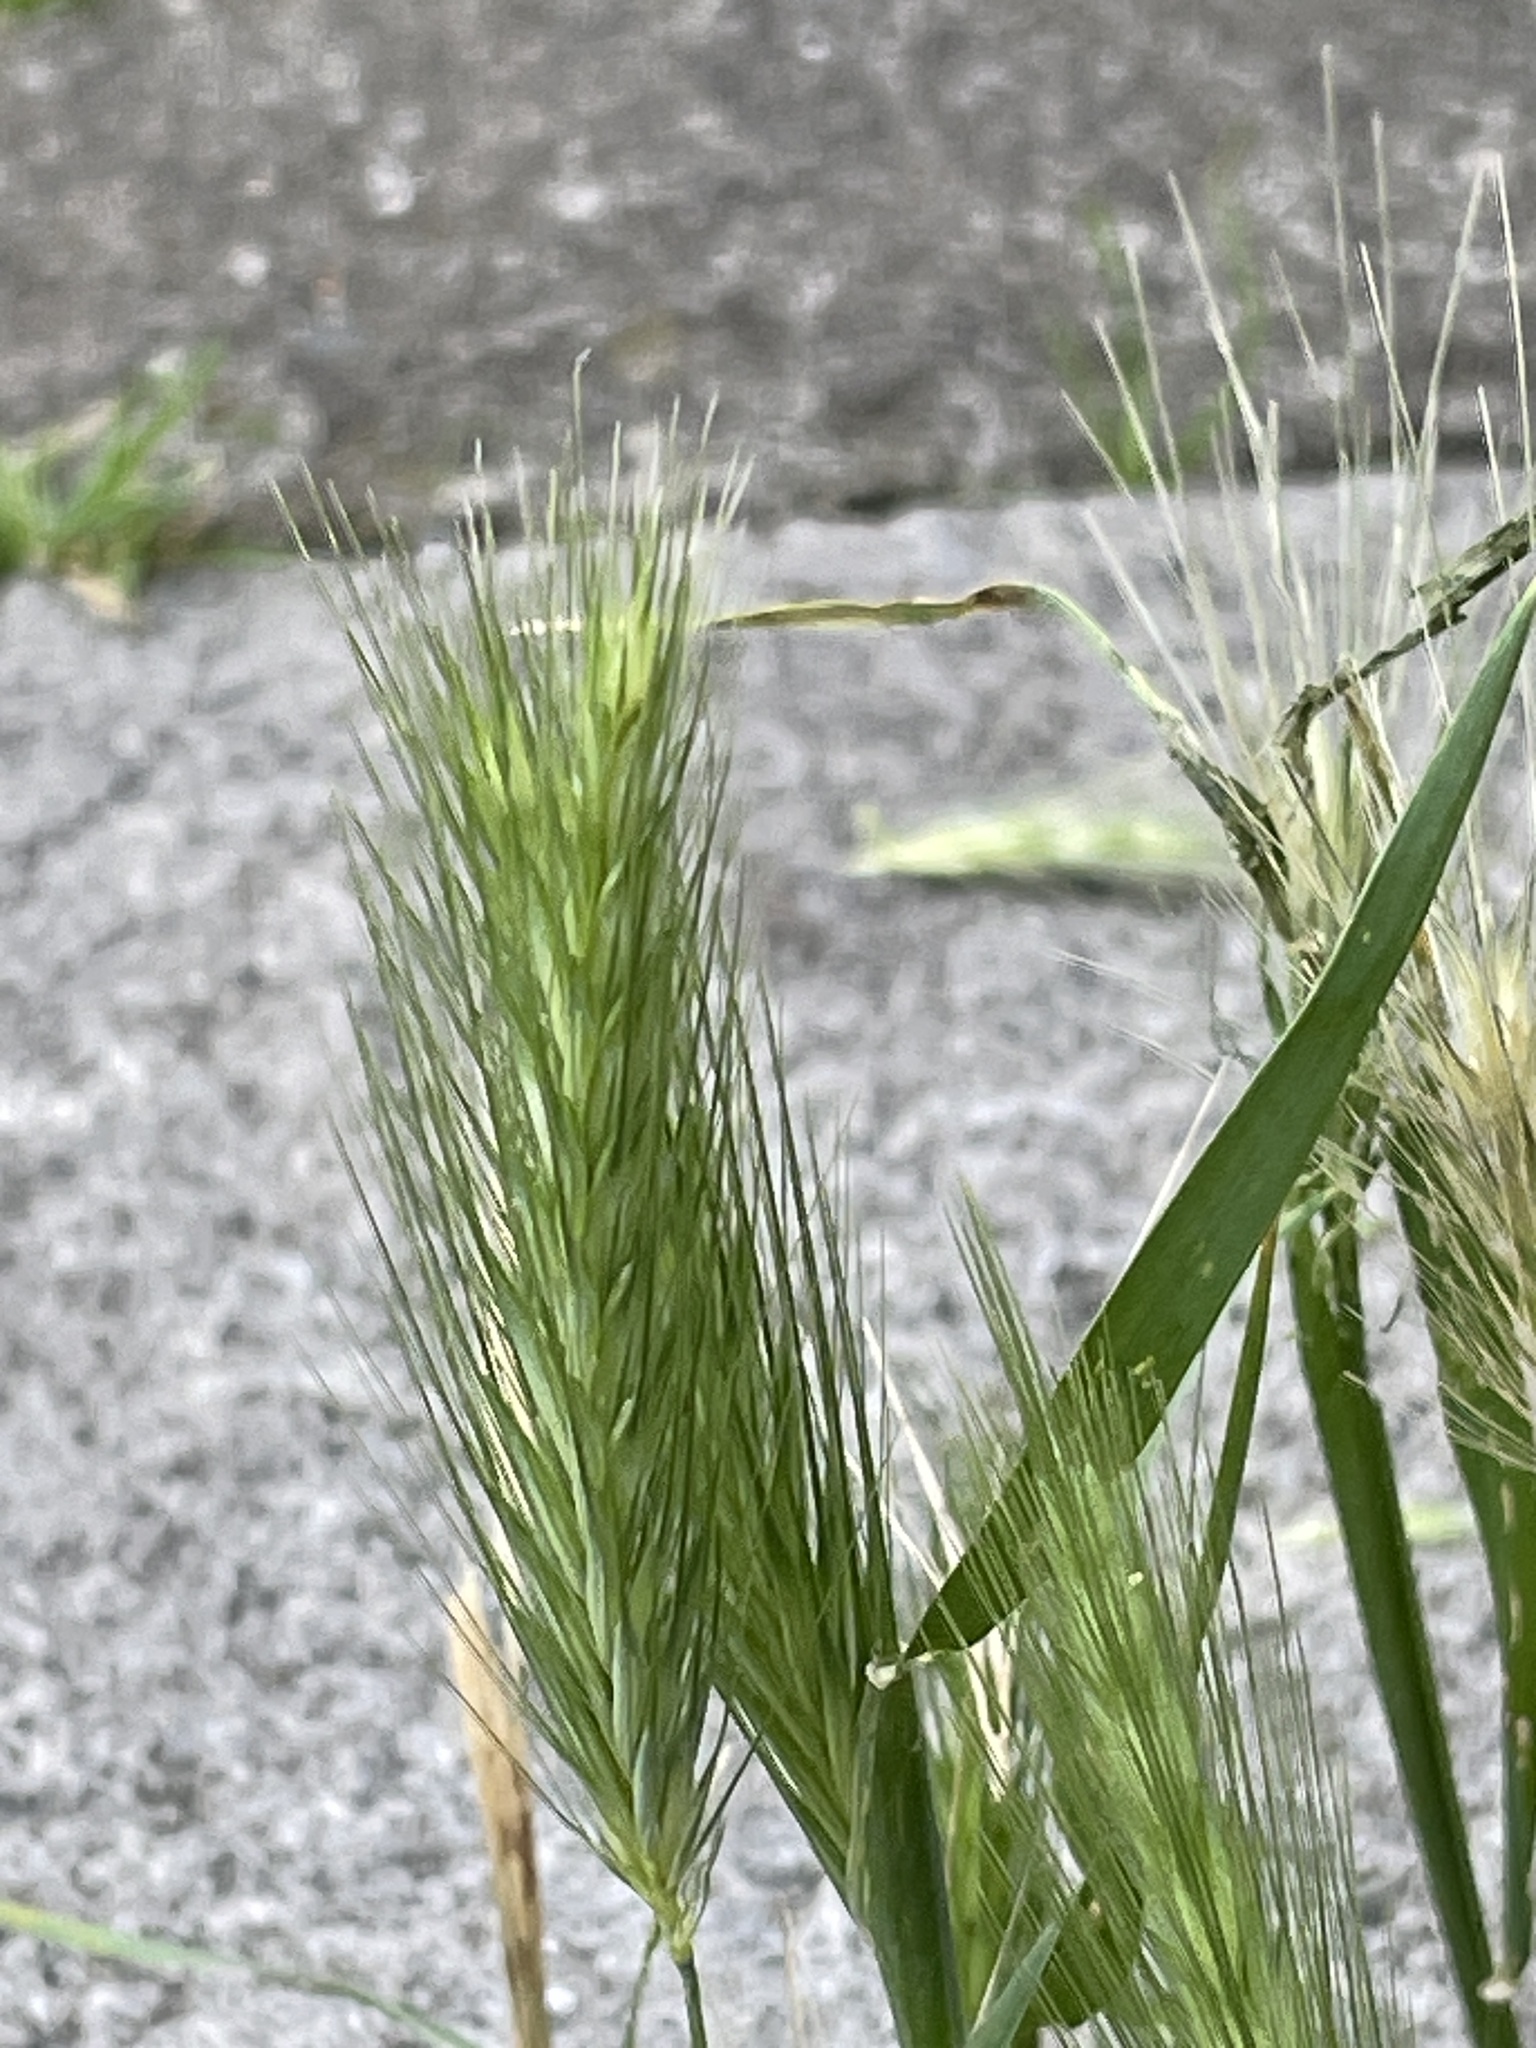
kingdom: Plantae
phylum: Tracheophyta
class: Liliopsida
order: Poales
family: Poaceae
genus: Hordeum
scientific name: Hordeum murinum
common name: Wall barley
